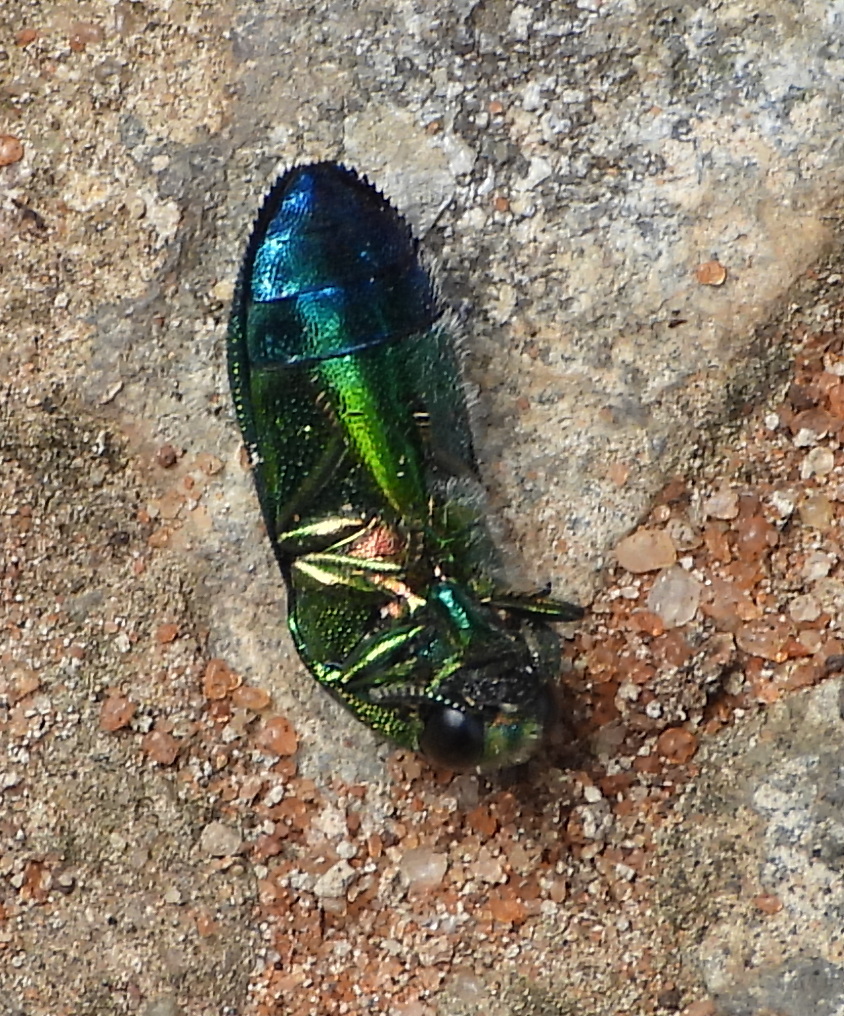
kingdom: Animalia
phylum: Arthropoda
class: Insecta
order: Coleoptera
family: Buprestidae
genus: Acmaeodera
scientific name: Acmaeodera fascigera
